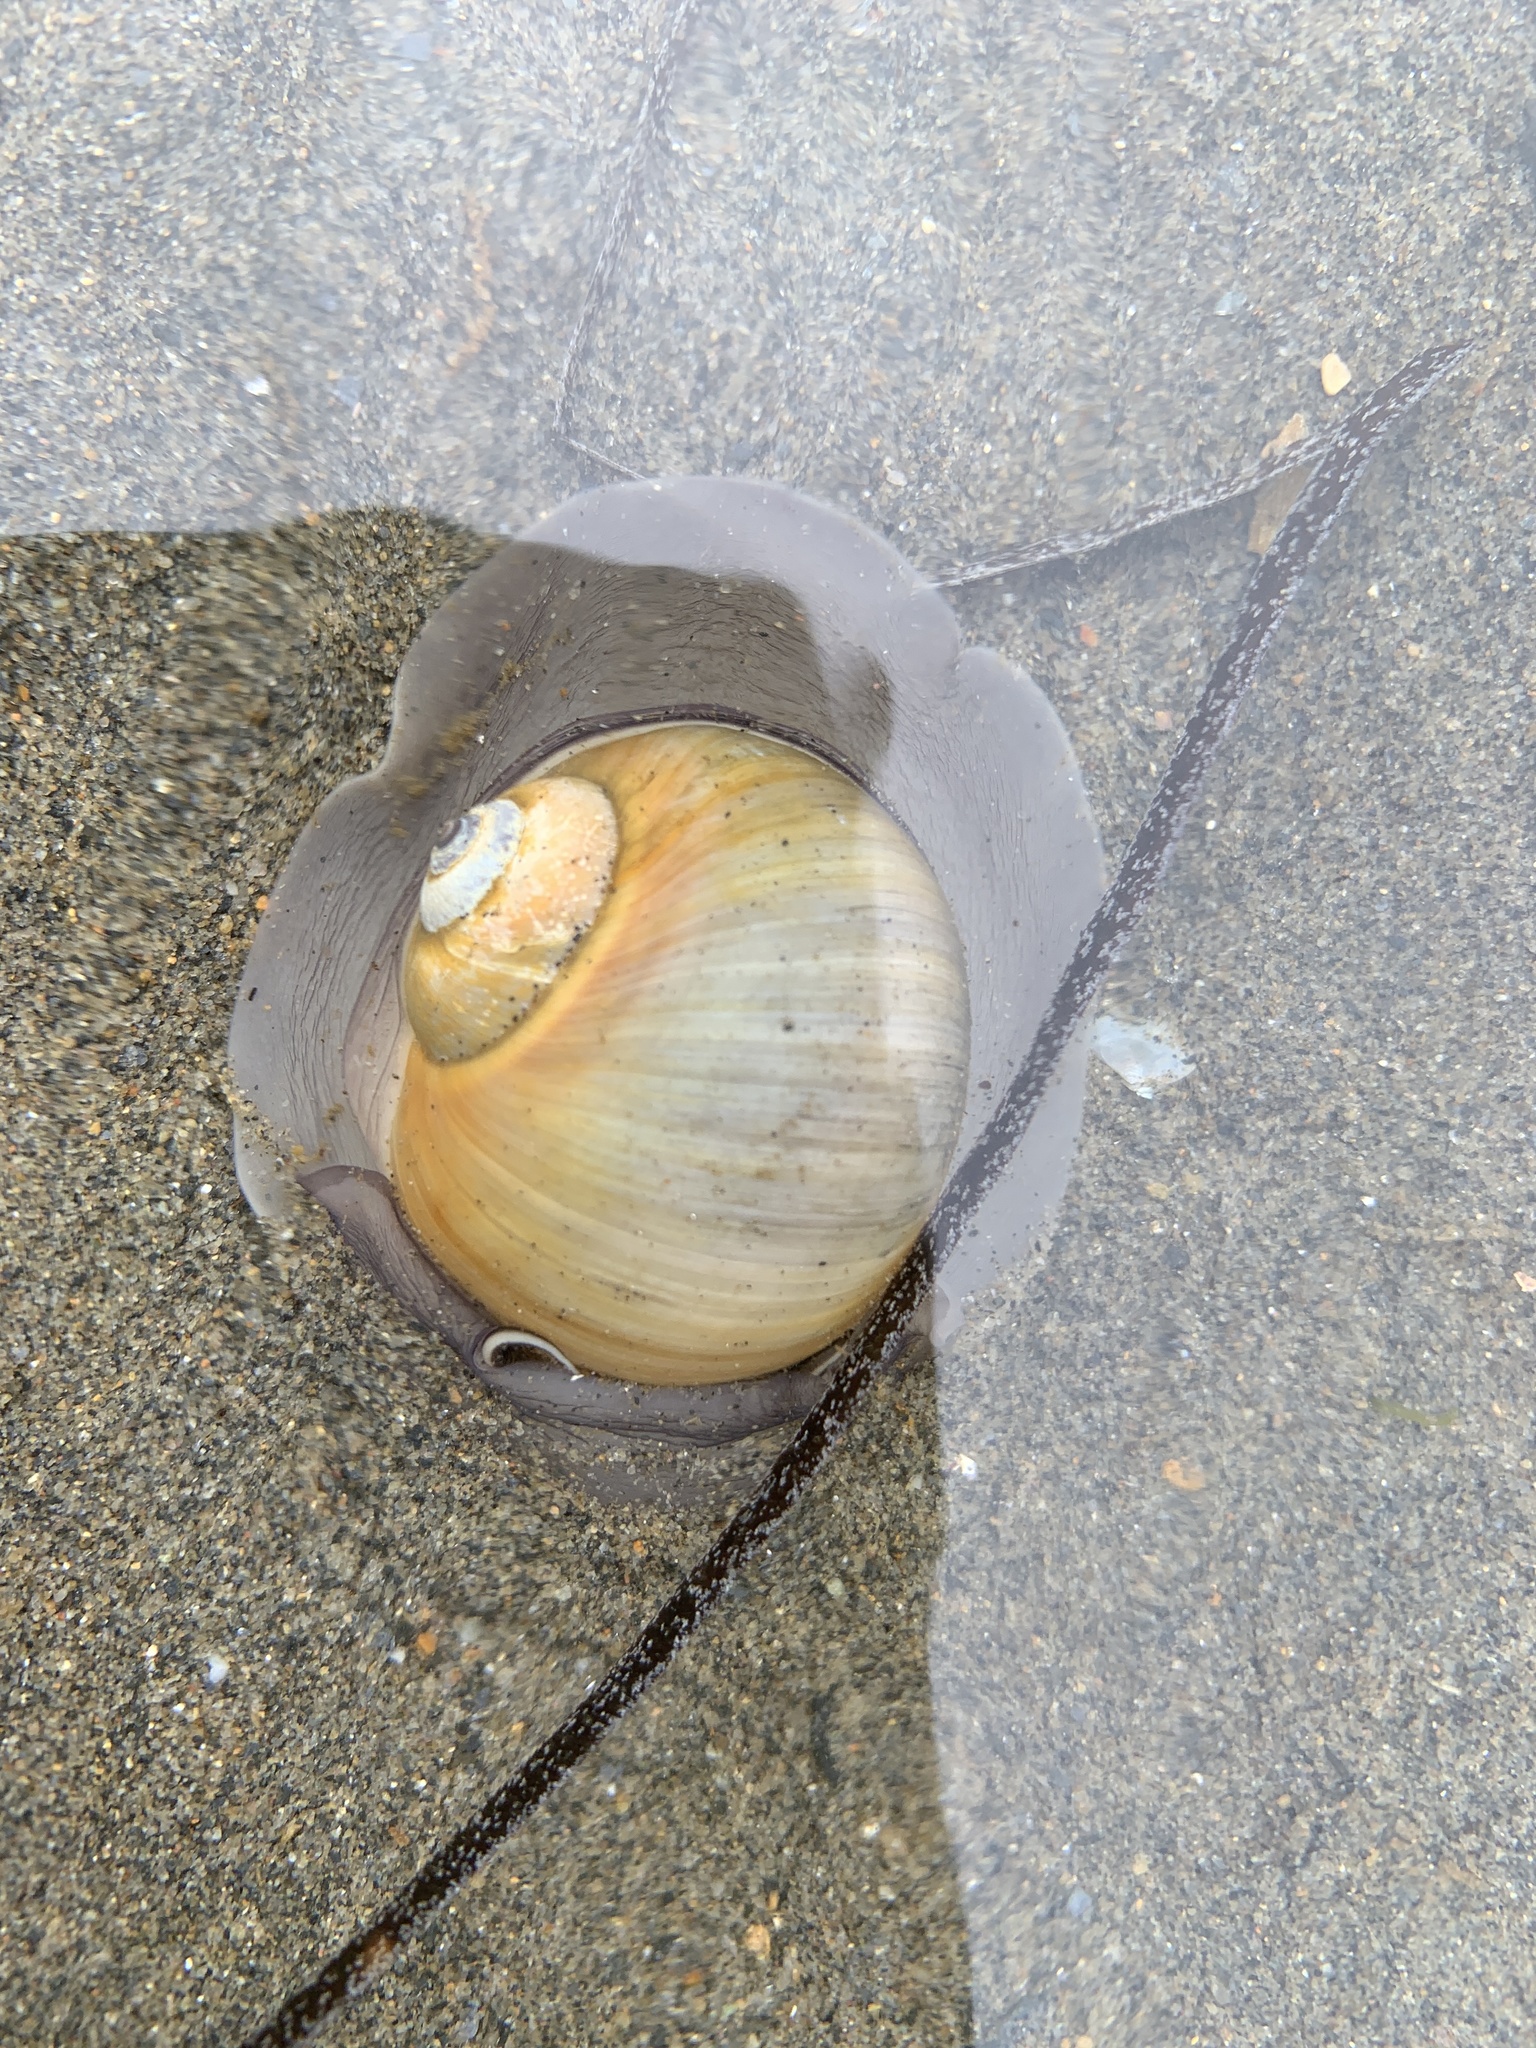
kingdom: Animalia
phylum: Mollusca
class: Gastropoda
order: Littorinimorpha
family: Naticidae
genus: Euspira
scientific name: Euspira heros
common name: Common northern moonsnail
